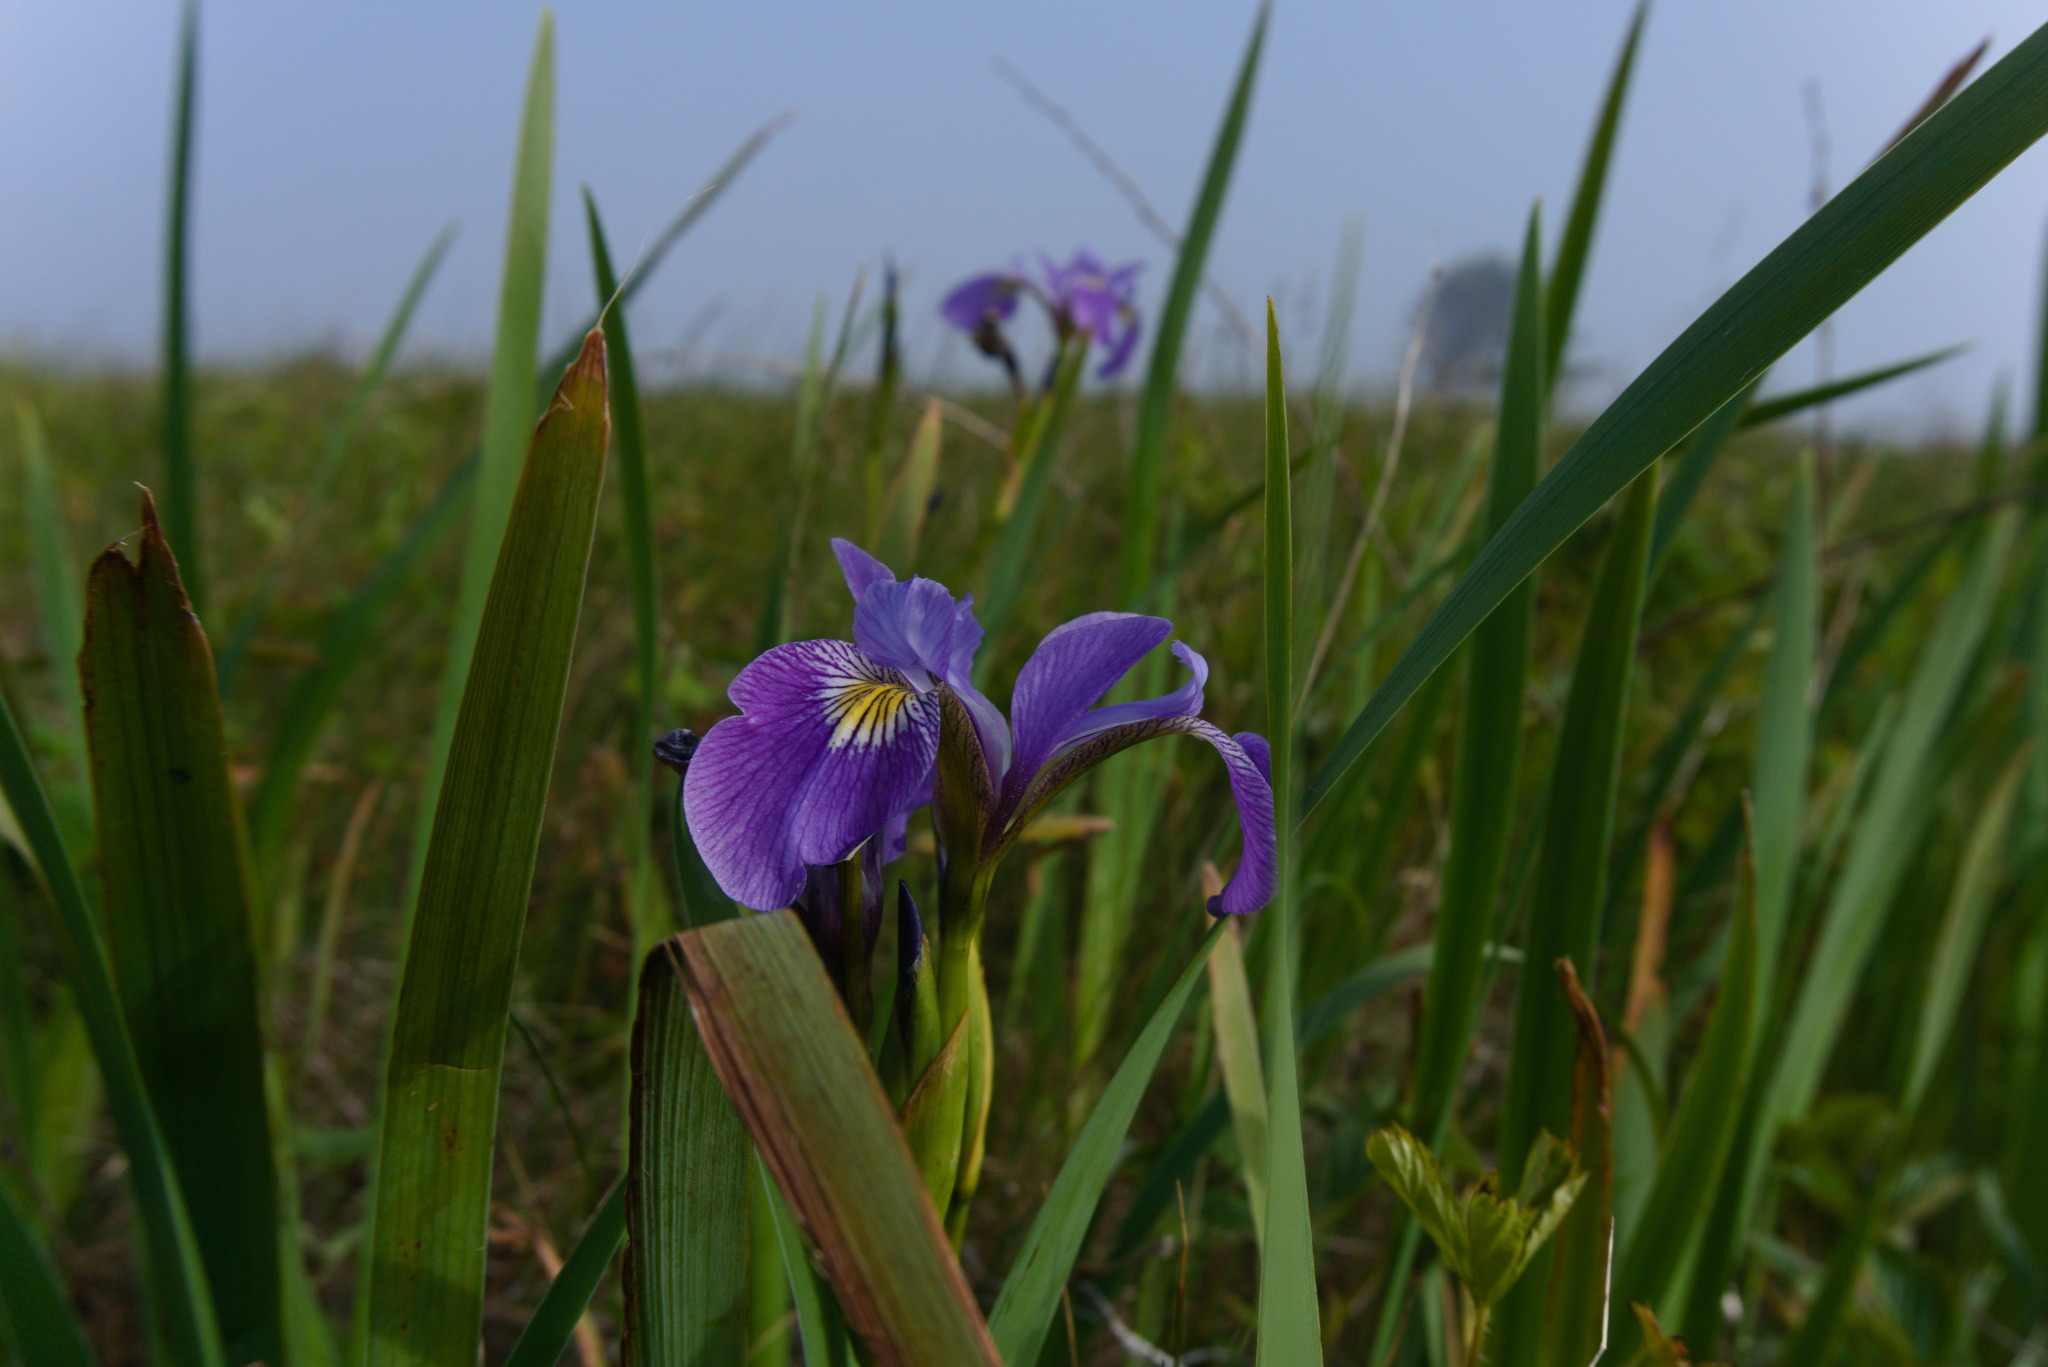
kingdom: Plantae
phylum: Tracheophyta
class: Liliopsida
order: Asparagales
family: Iridaceae
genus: Iris
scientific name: Iris versicolor
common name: Purple iris
